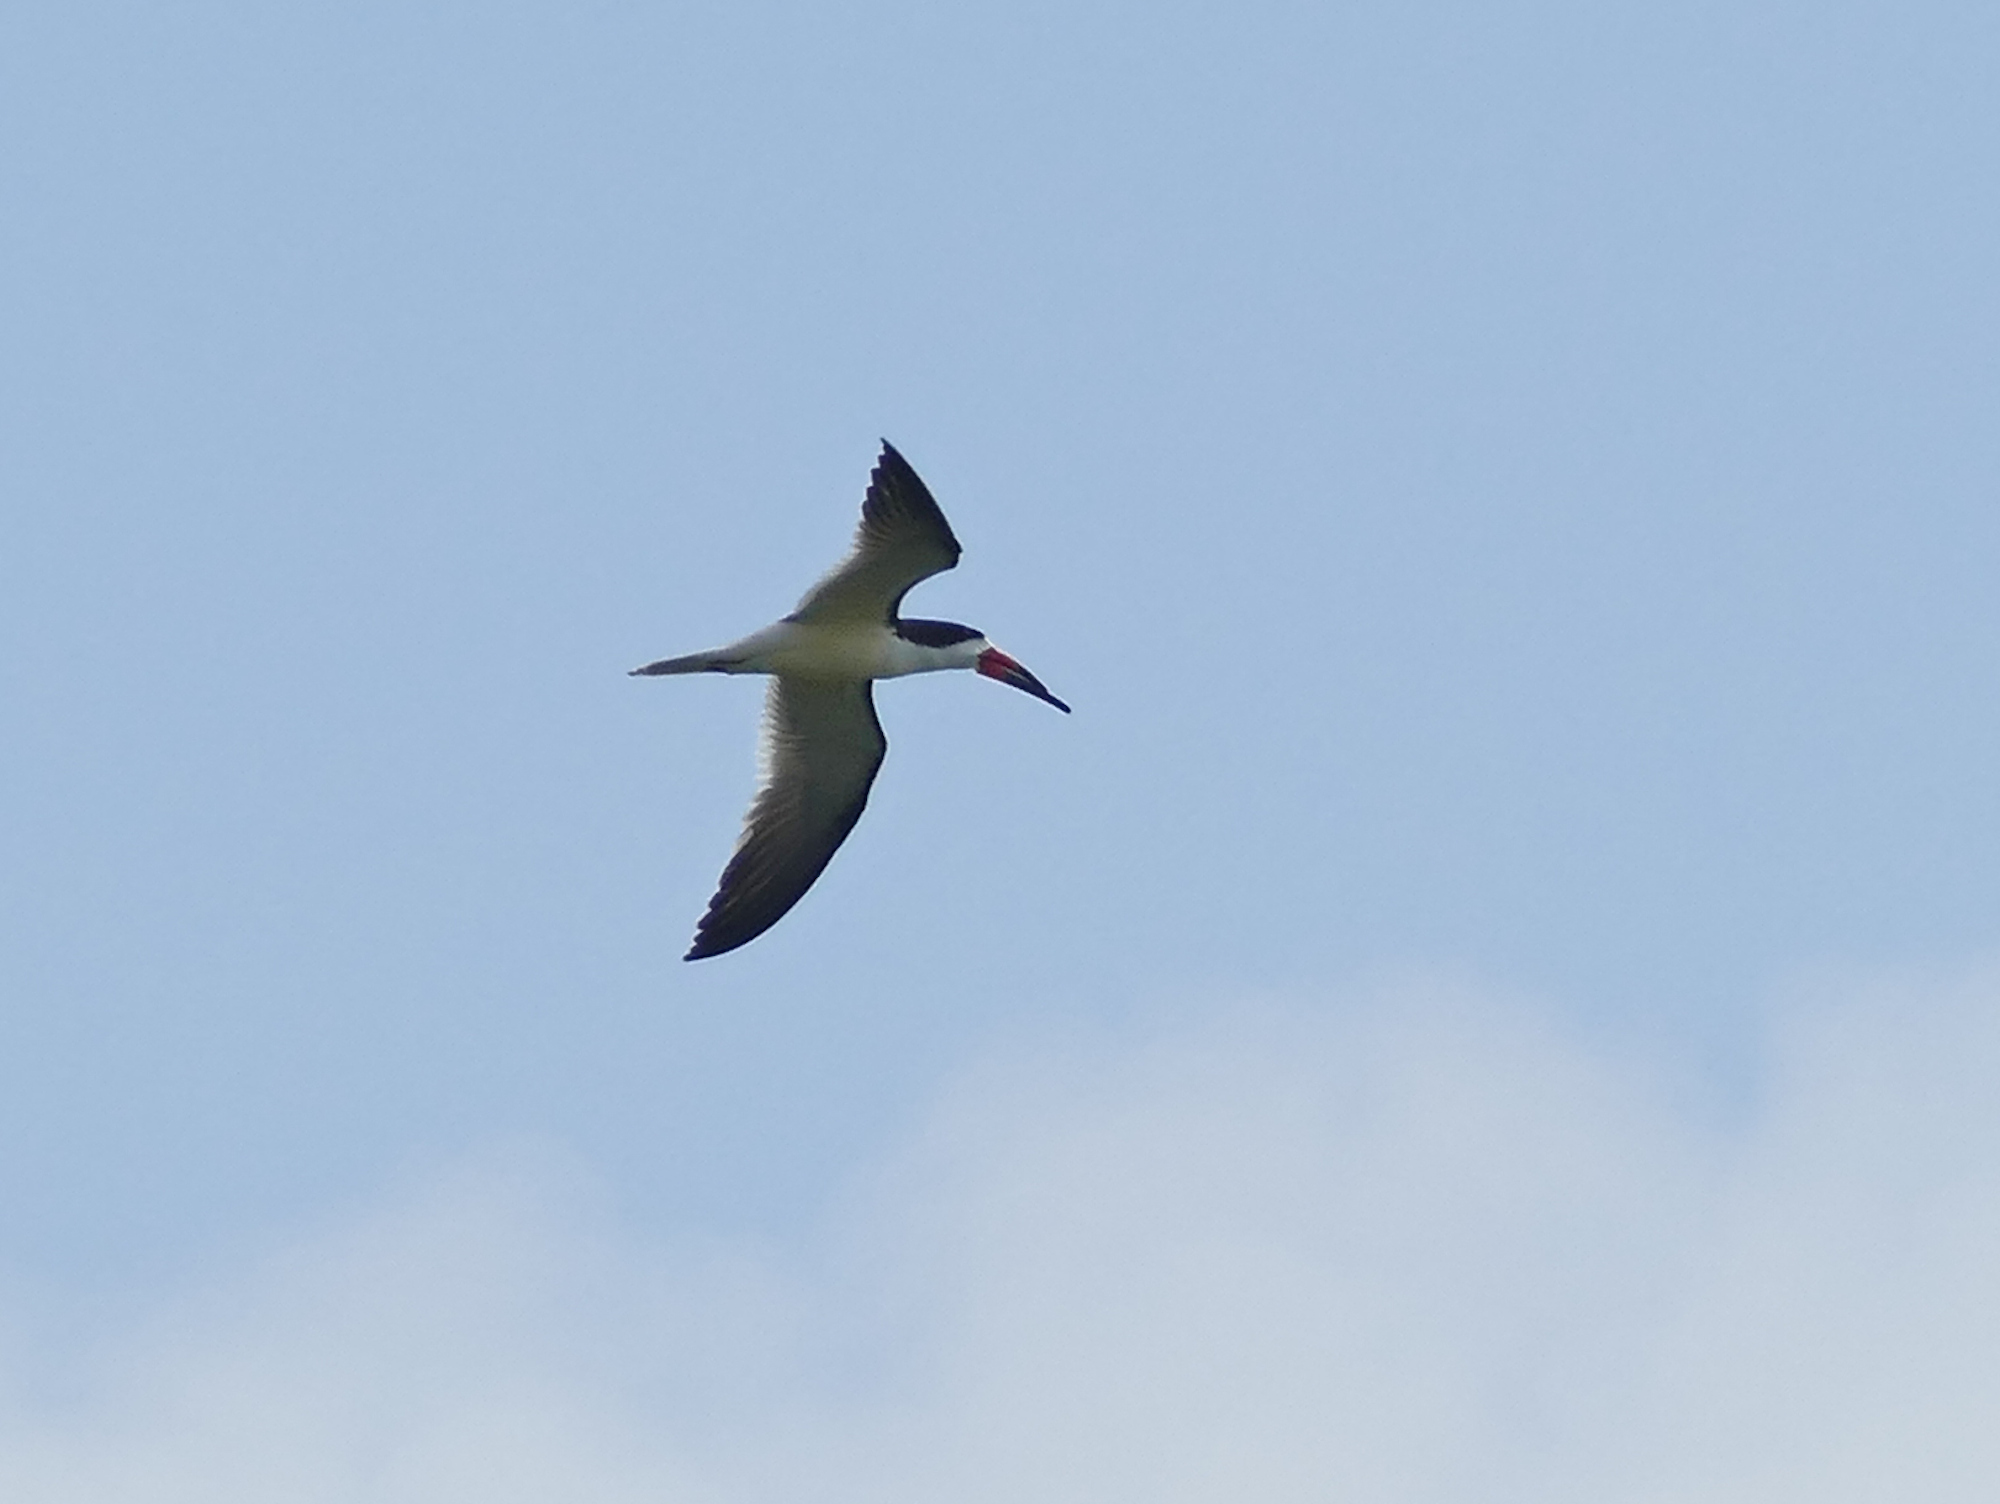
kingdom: Animalia
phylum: Chordata
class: Aves
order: Charadriiformes
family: Laridae
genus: Rynchops
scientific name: Rynchops niger
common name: Black skimmer
